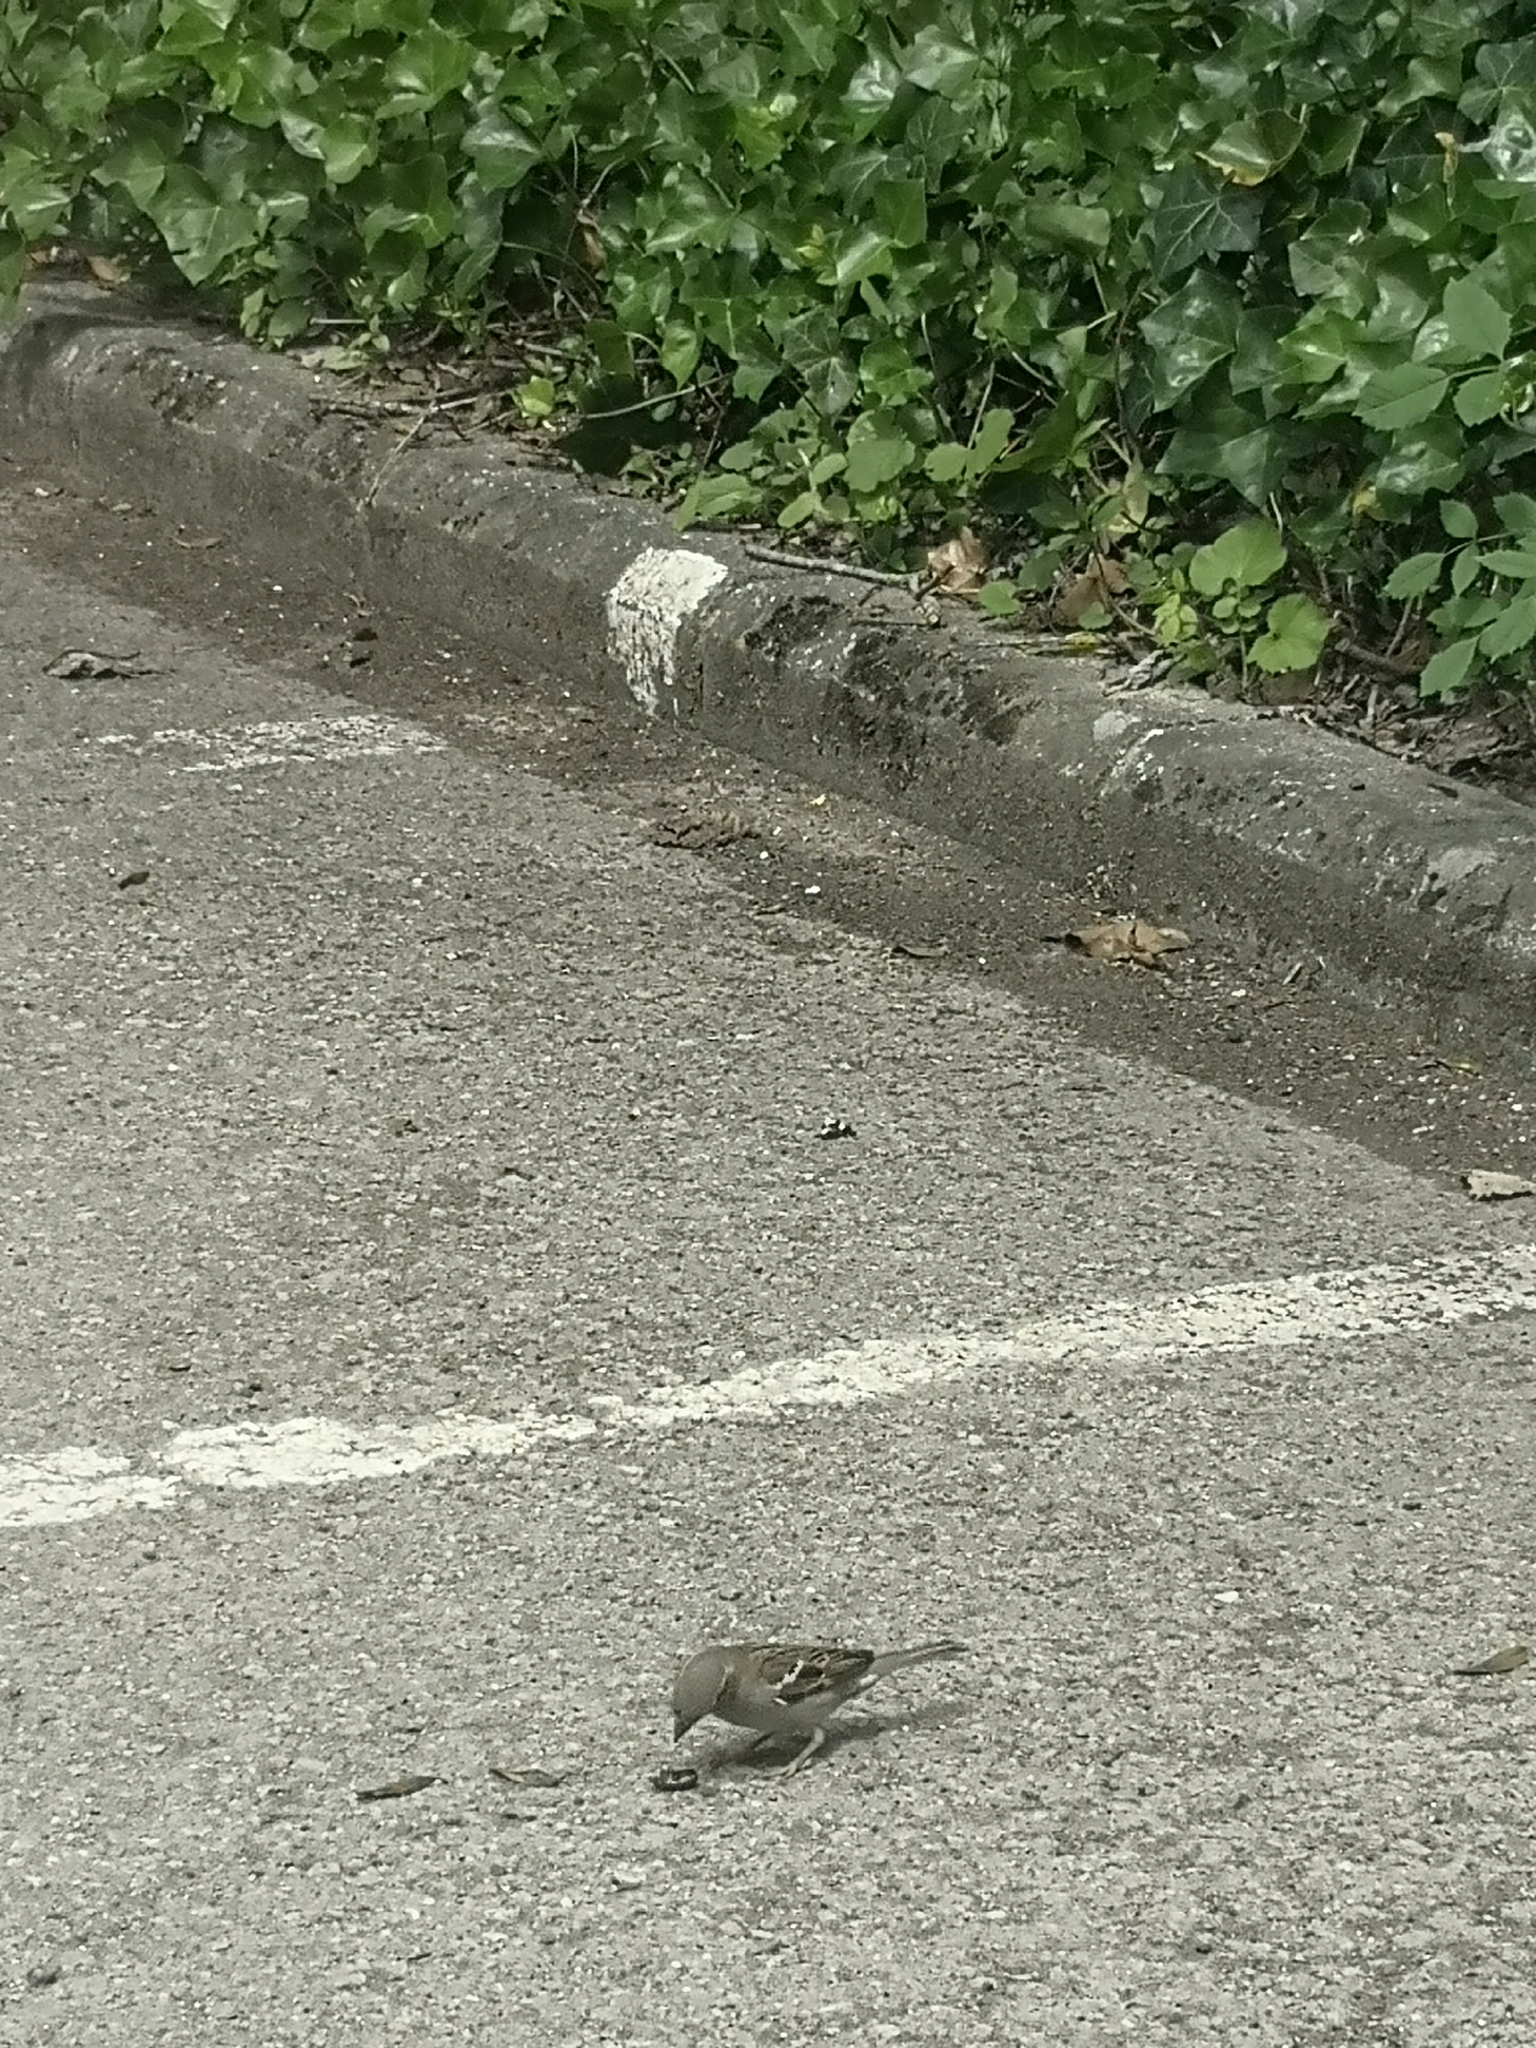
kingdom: Animalia
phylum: Chordata
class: Aves
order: Passeriformes
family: Passeridae
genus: Passer
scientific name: Passer domesticus
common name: House sparrow
